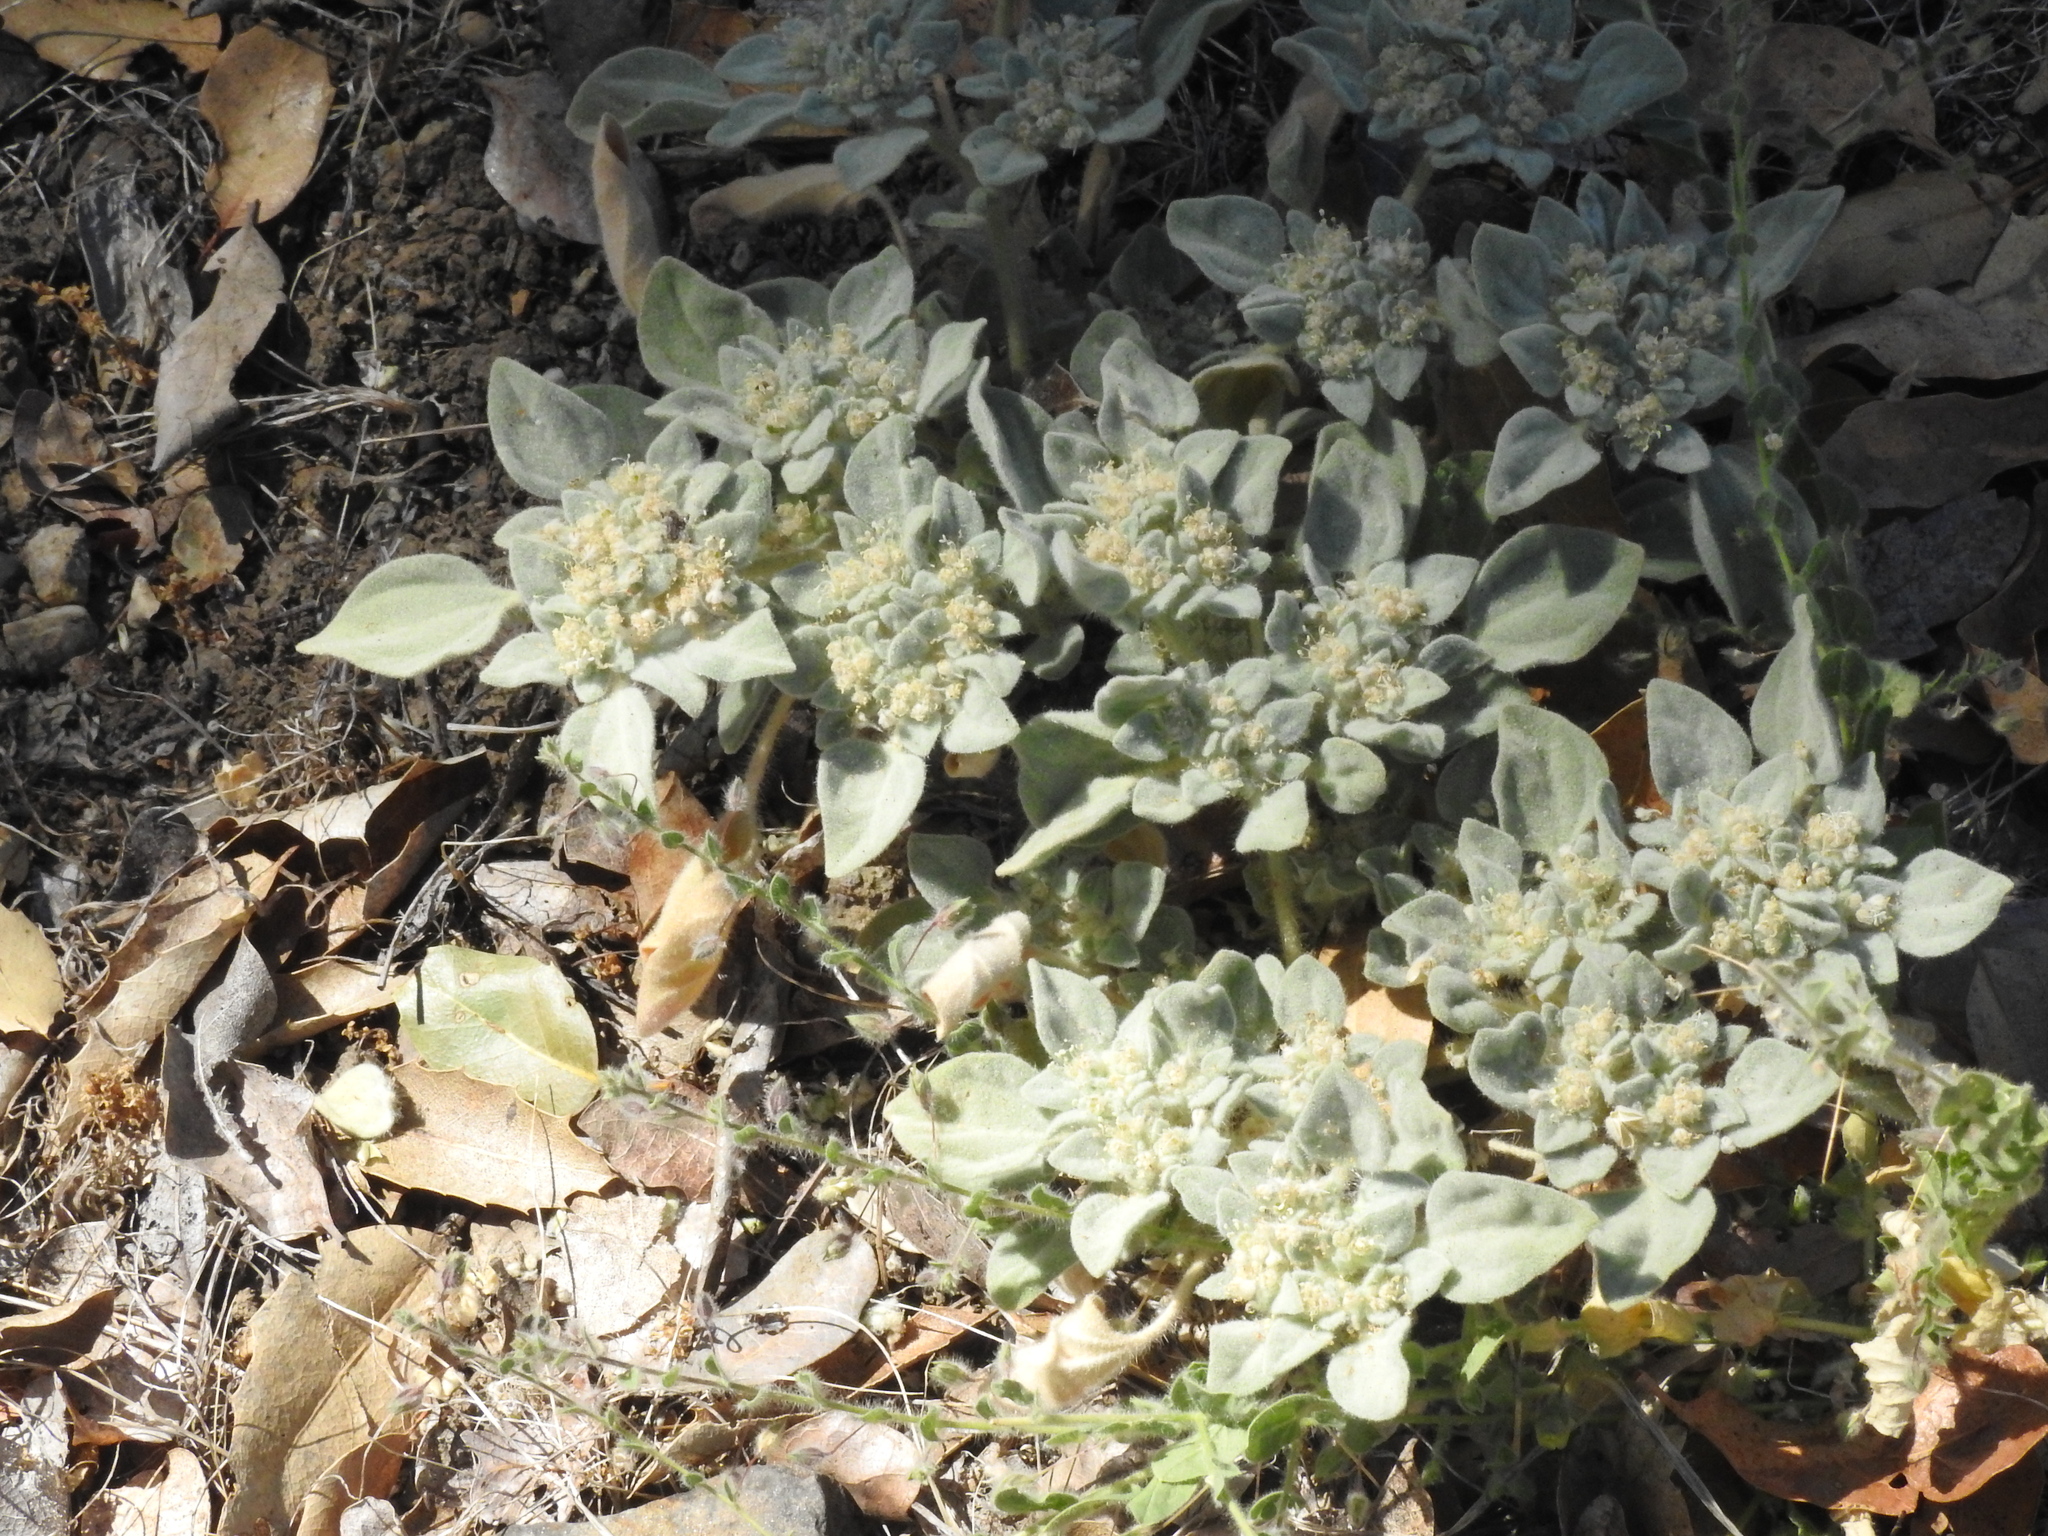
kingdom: Plantae
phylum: Tracheophyta
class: Magnoliopsida
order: Malpighiales
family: Euphorbiaceae
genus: Croton
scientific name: Croton setiger
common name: Dove weed
